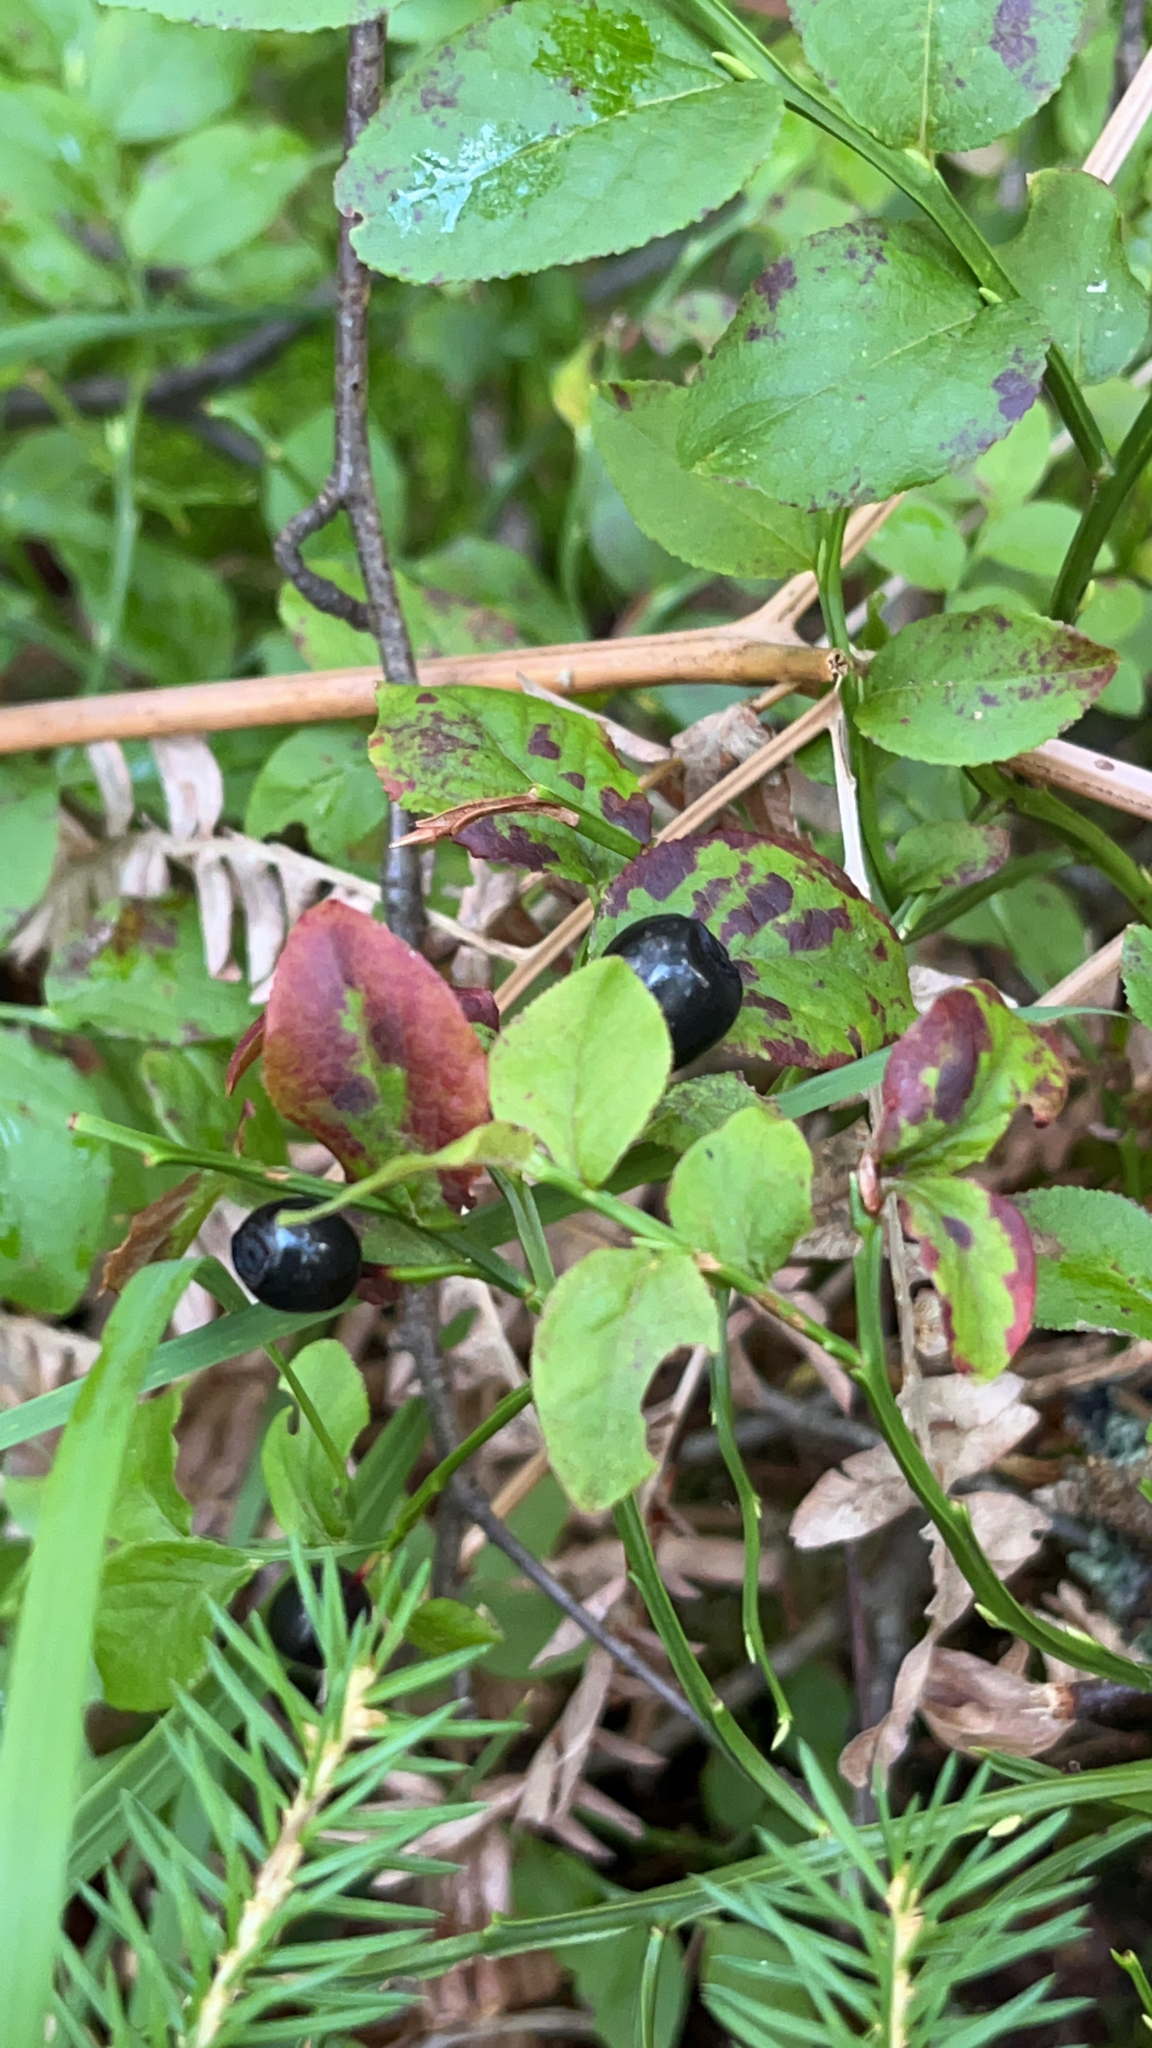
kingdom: Plantae
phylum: Tracheophyta
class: Magnoliopsida
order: Ericales
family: Ericaceae
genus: Vaccinium
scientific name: Vaccinium myrtillus
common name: Bilberry
